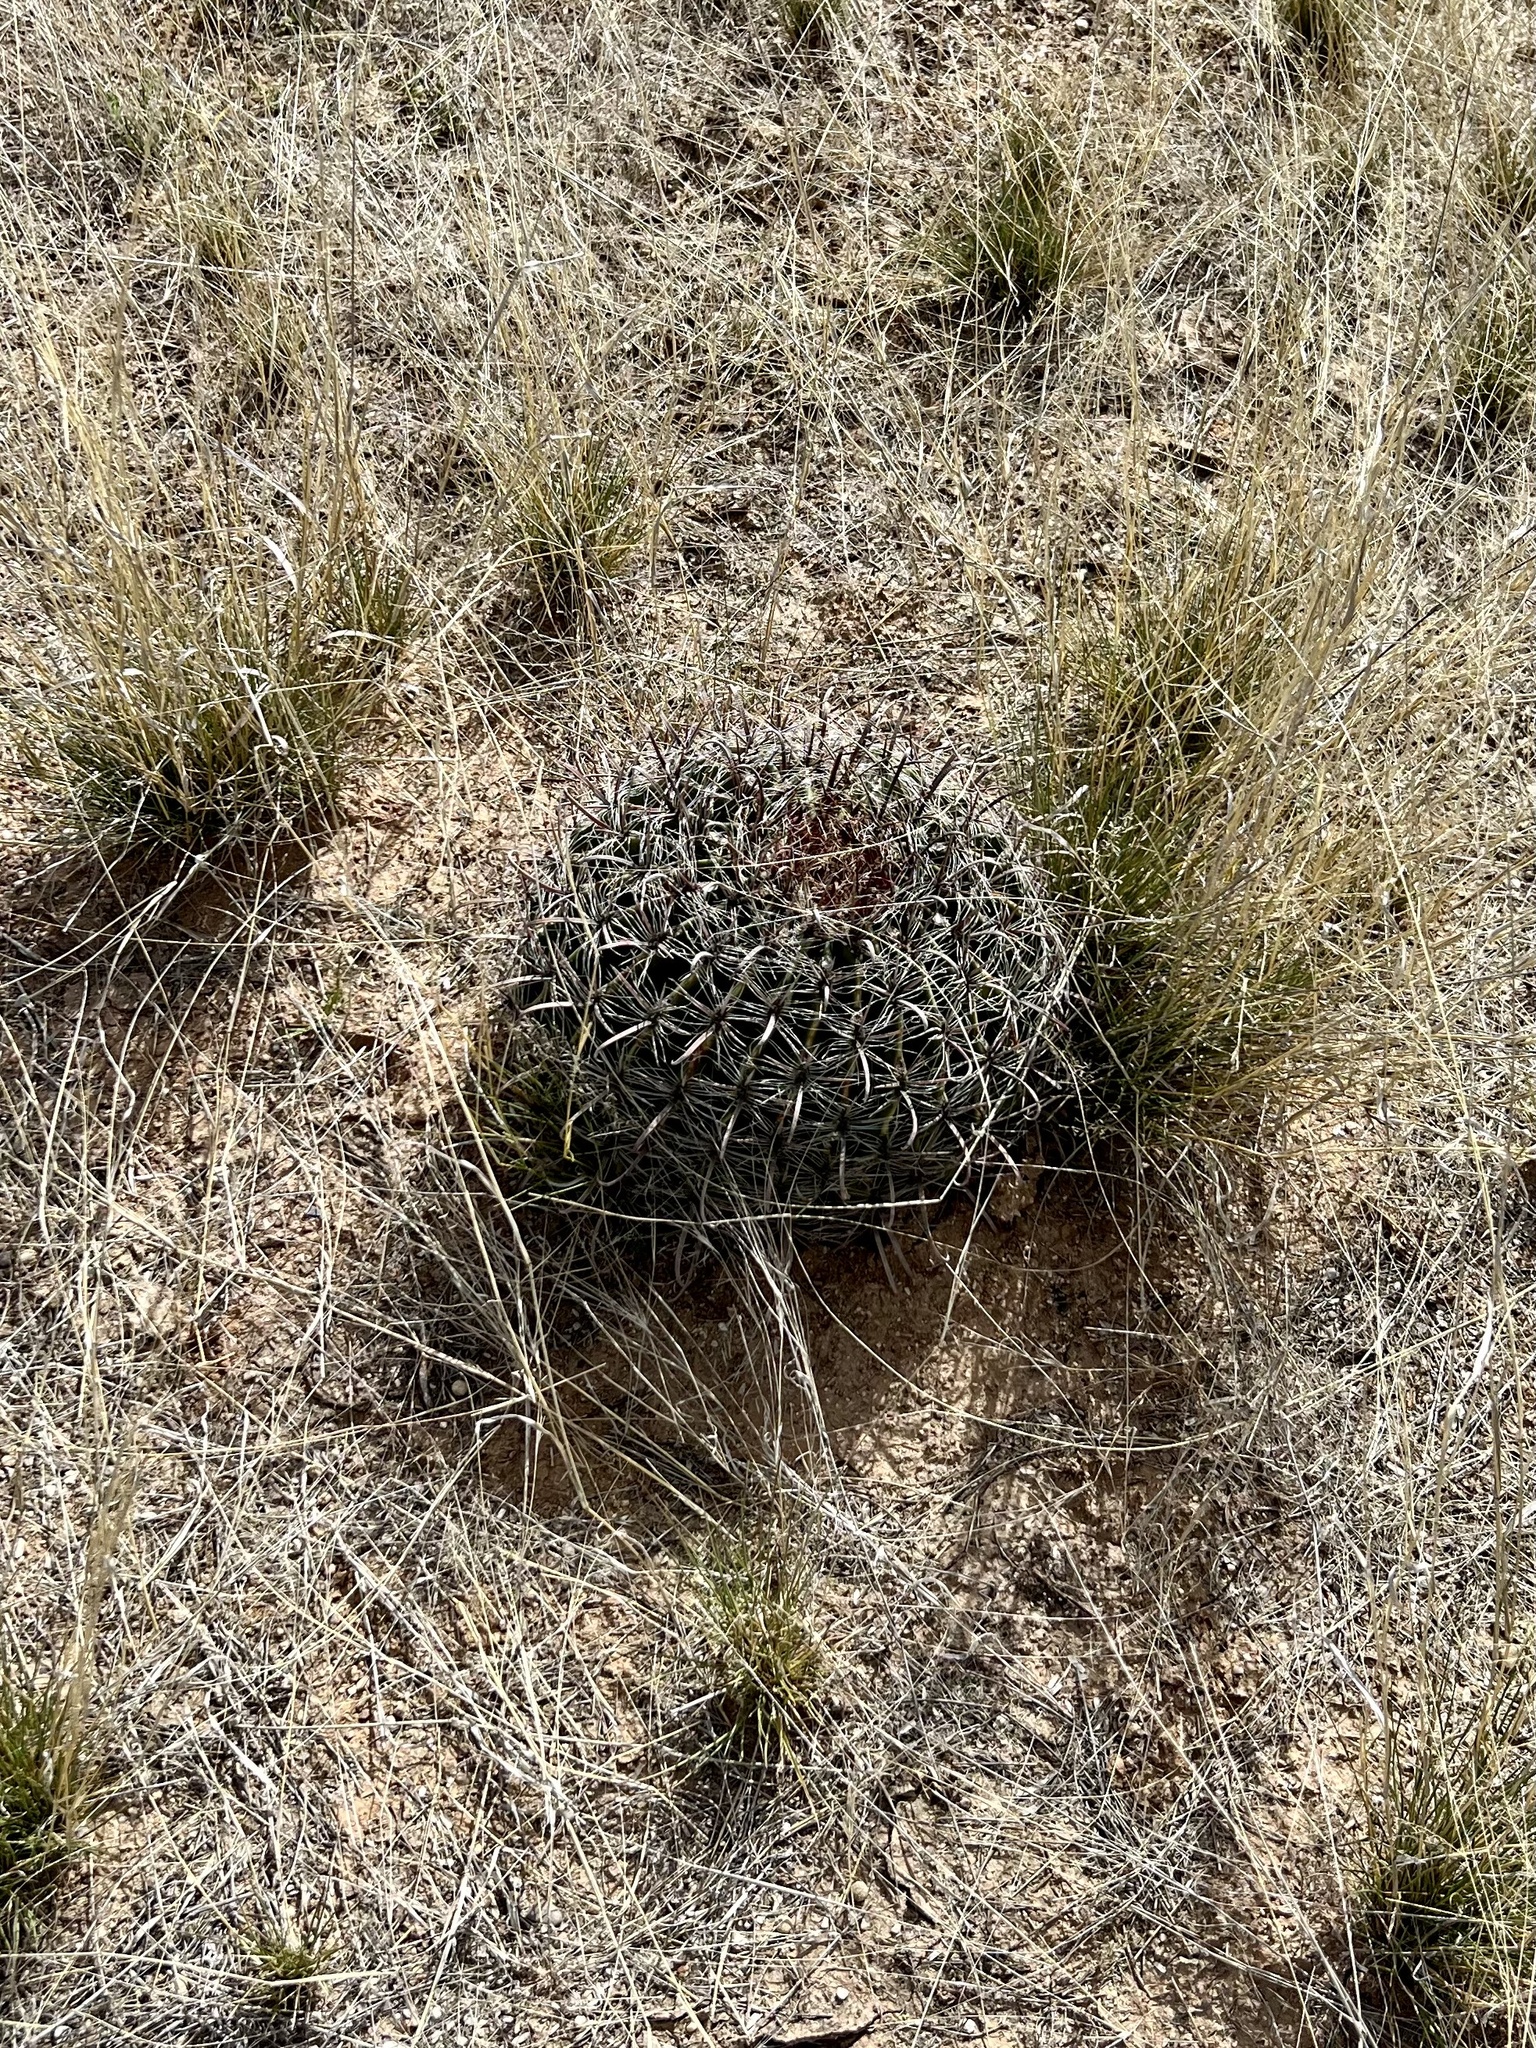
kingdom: Plantae
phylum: Tracheophyta
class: Magnoliopsida
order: Caryophyllales
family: Cactaceae
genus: Ferocactus
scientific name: Ferocactus wislizeni
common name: Candy barrel cactus
